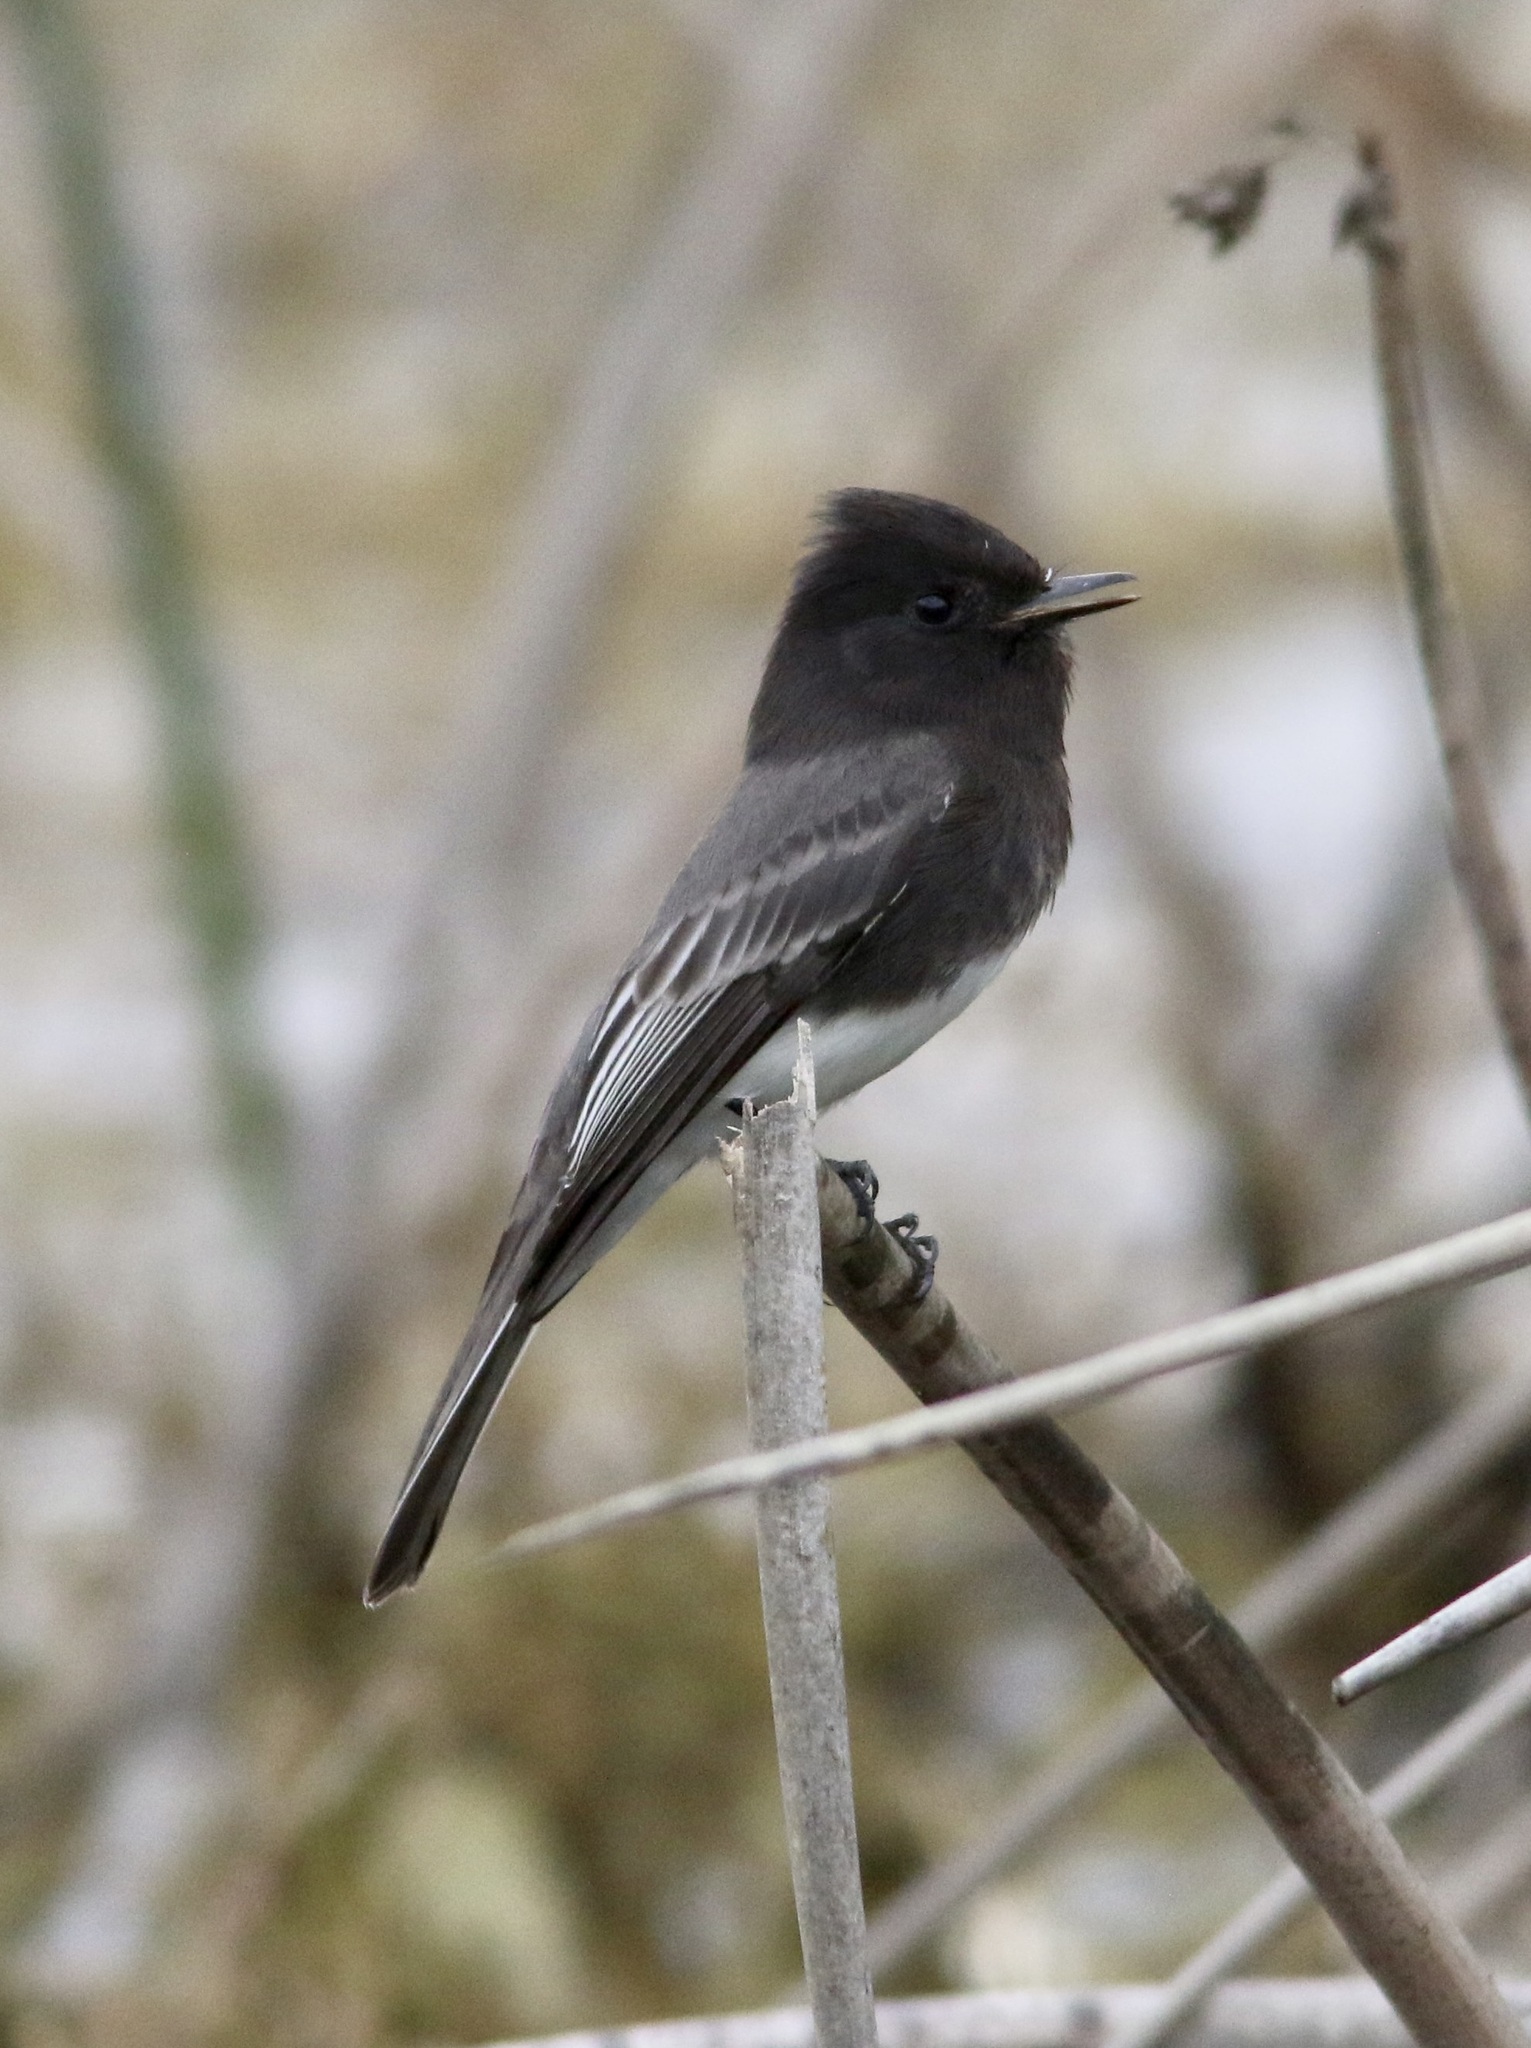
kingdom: Animalia
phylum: Chordata
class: Aves
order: Passeriformes
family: Tyrannidae
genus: Sayornis
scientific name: Sayornis nigricans
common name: Black phoebe
